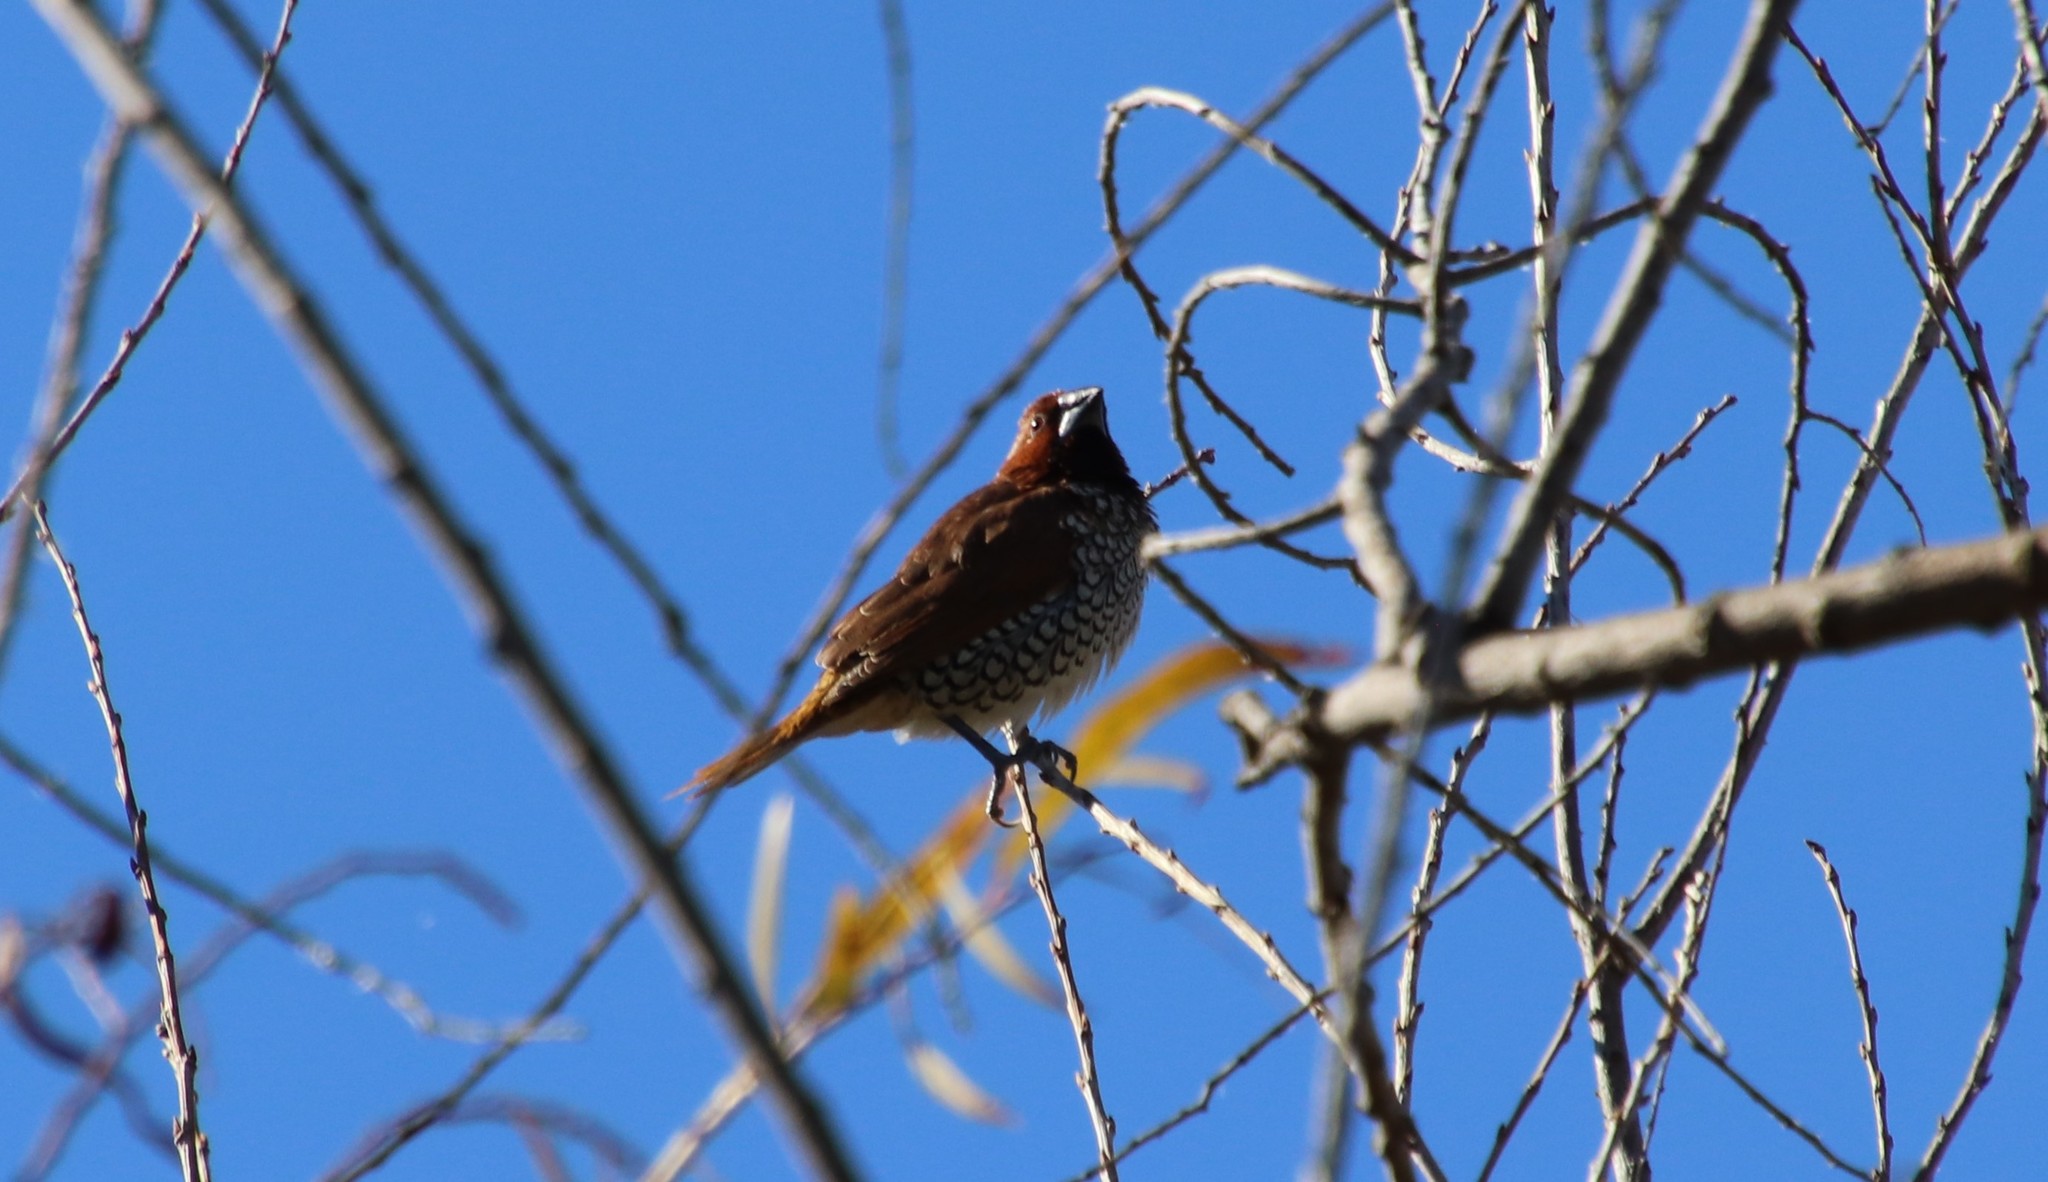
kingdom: Animalia
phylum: Chordata
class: Aves
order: Passeriformes
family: Estrildidae
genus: Lonchura
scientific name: Lonchura punctulata
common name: Scaly-breasted munia
